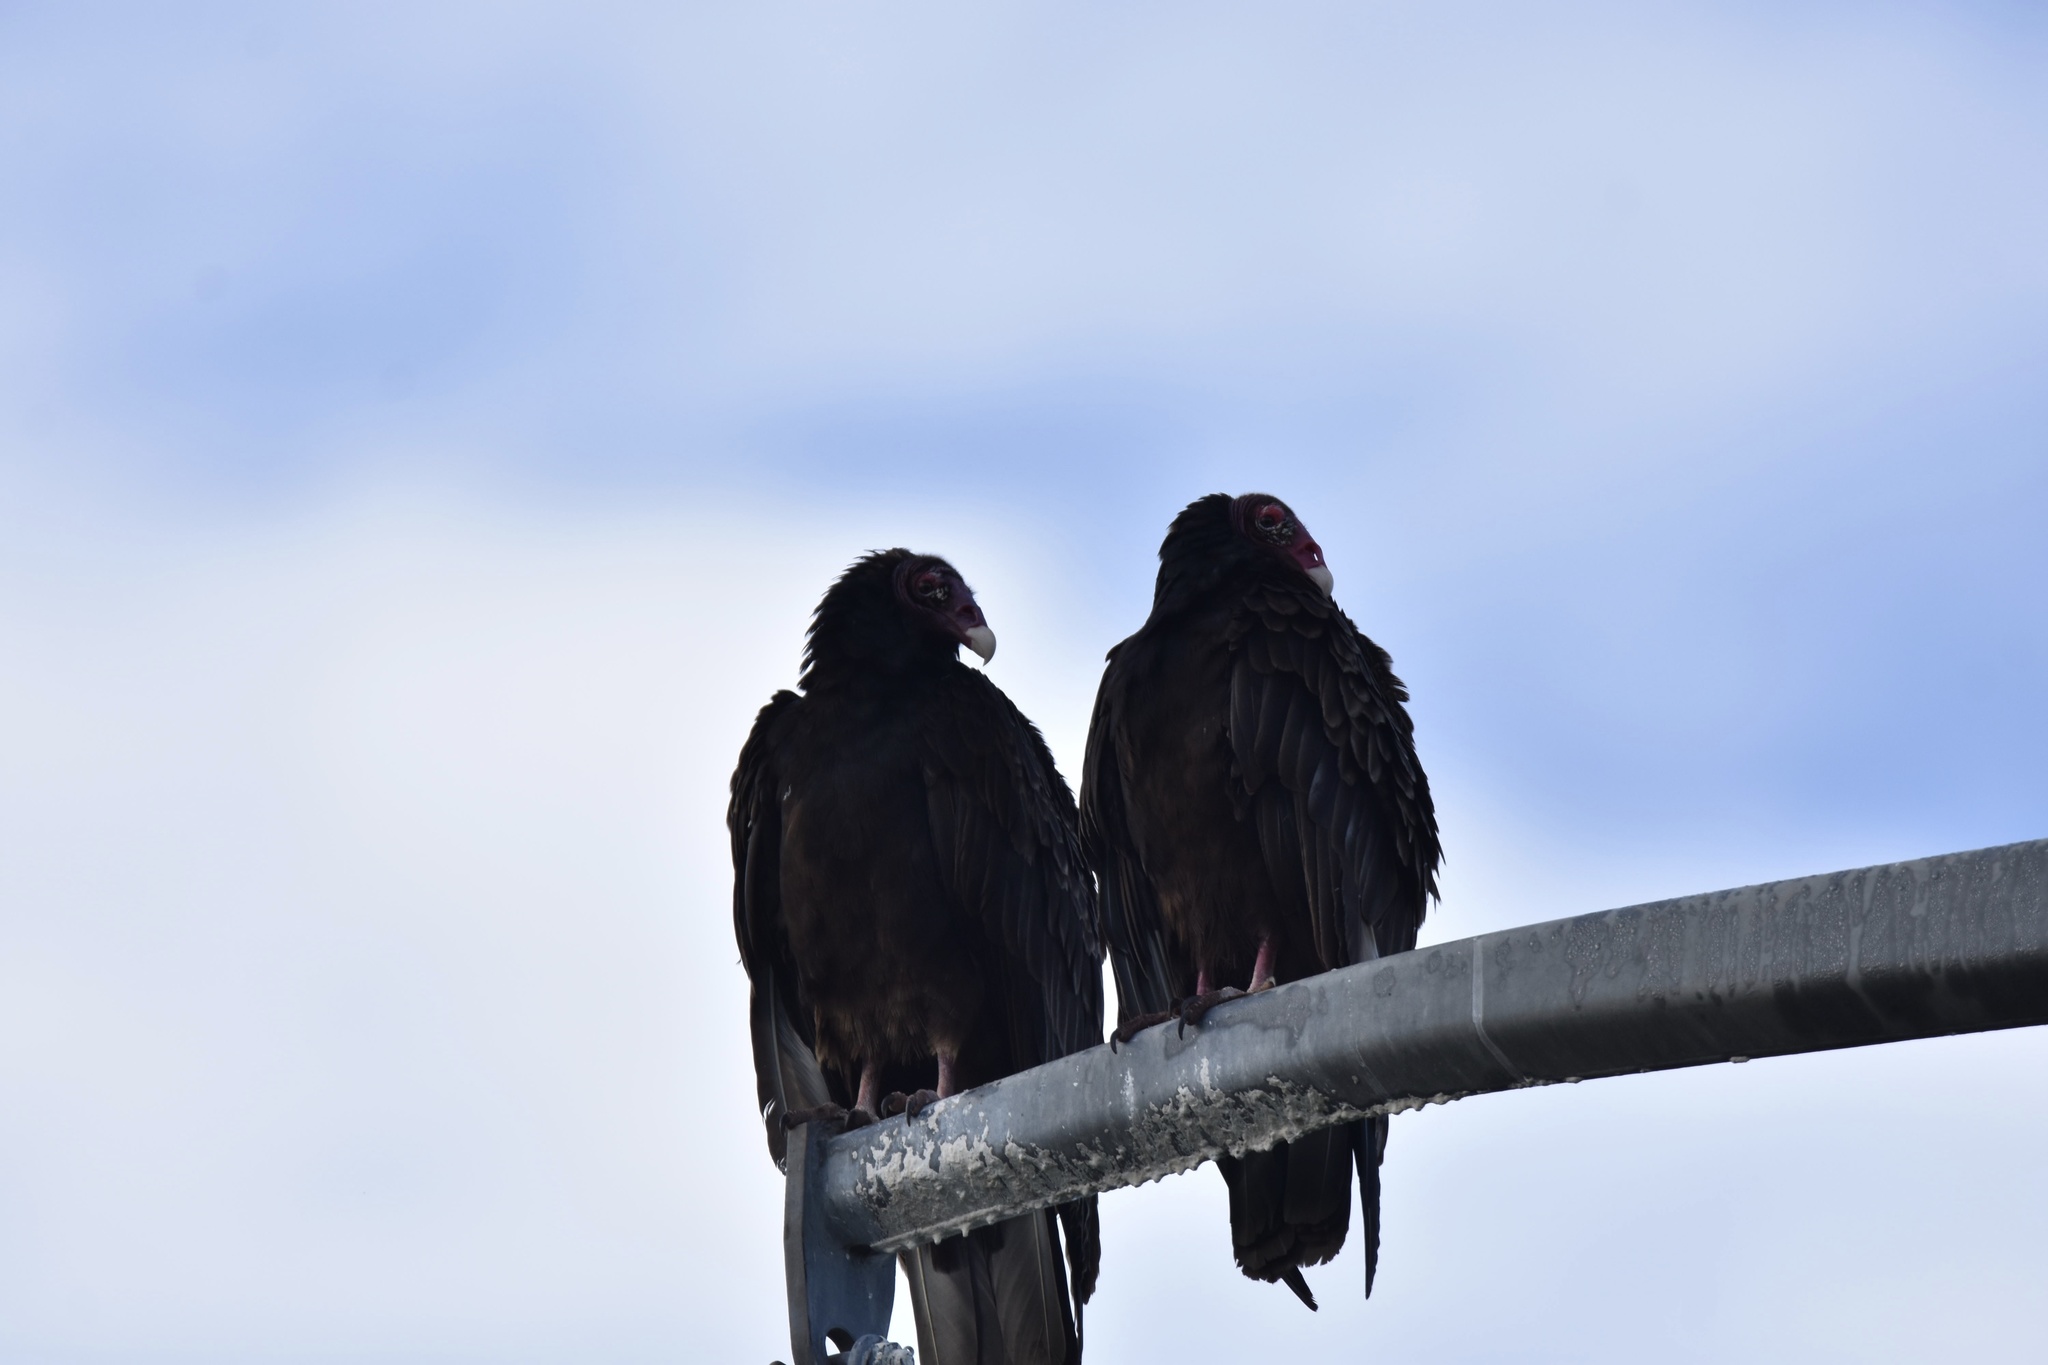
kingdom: Animalia
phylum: Chordata
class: Aves
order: Accipitriformes
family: Cathartidae
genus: Cathartes
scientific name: Cathartes aura
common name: Turkey vulture
